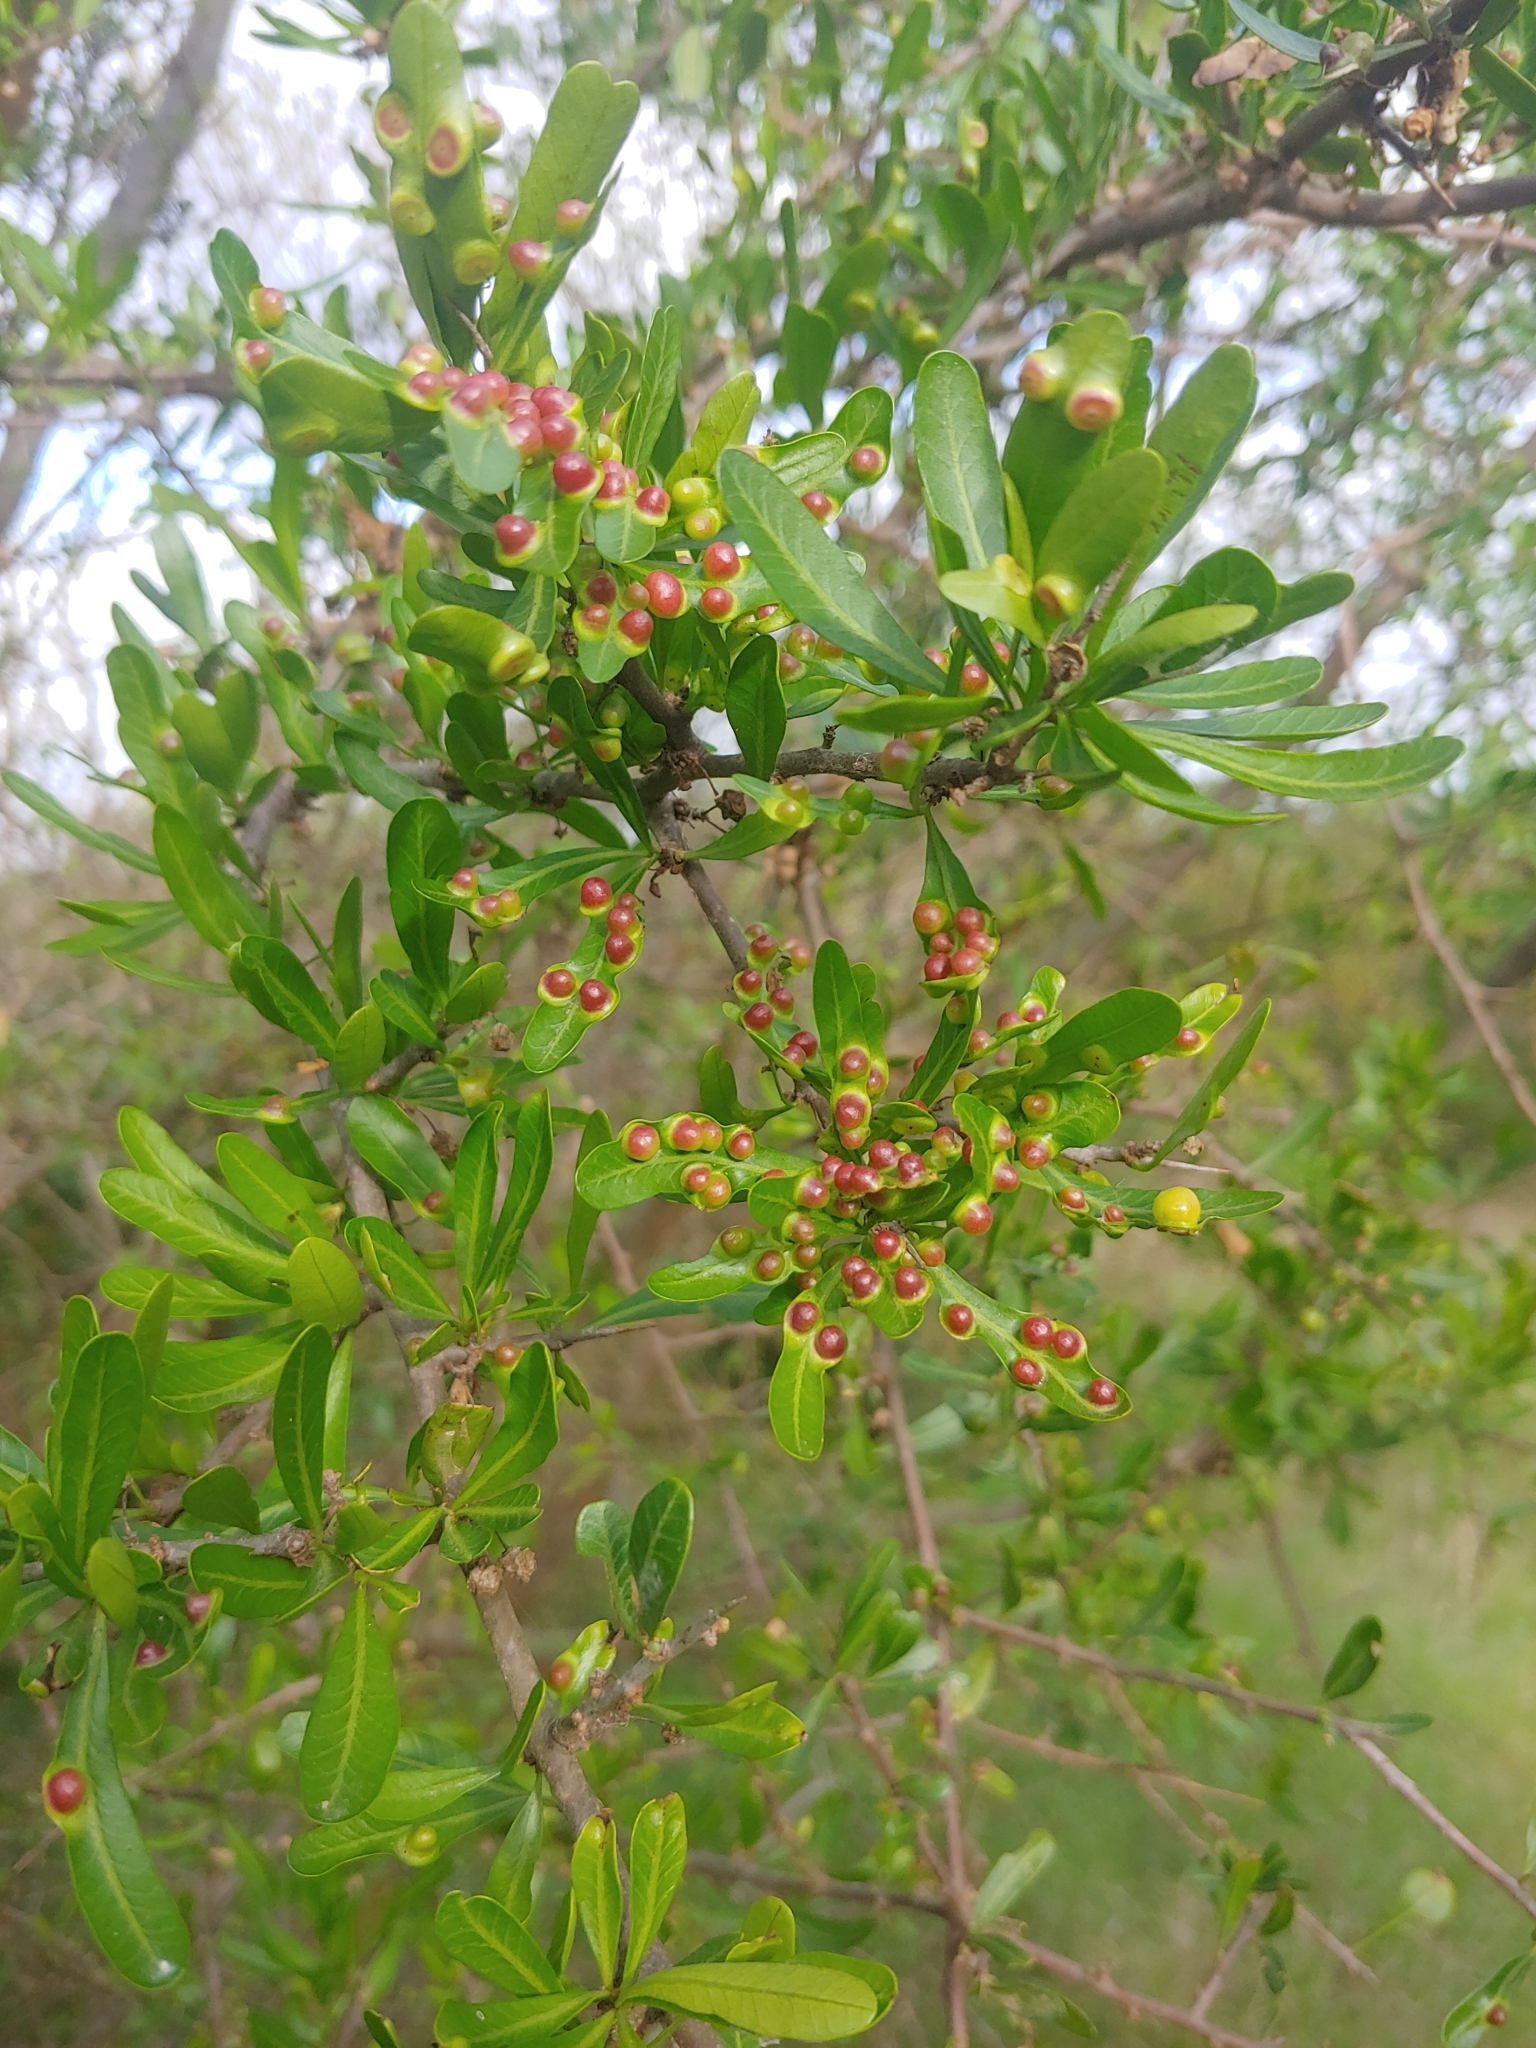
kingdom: Plantae
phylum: Tracheophyta
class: Magnoliopsida
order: Sapindales
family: Anacardiaceae
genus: Schinus
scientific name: Schinus longifolia
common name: Longleaf peppertree
